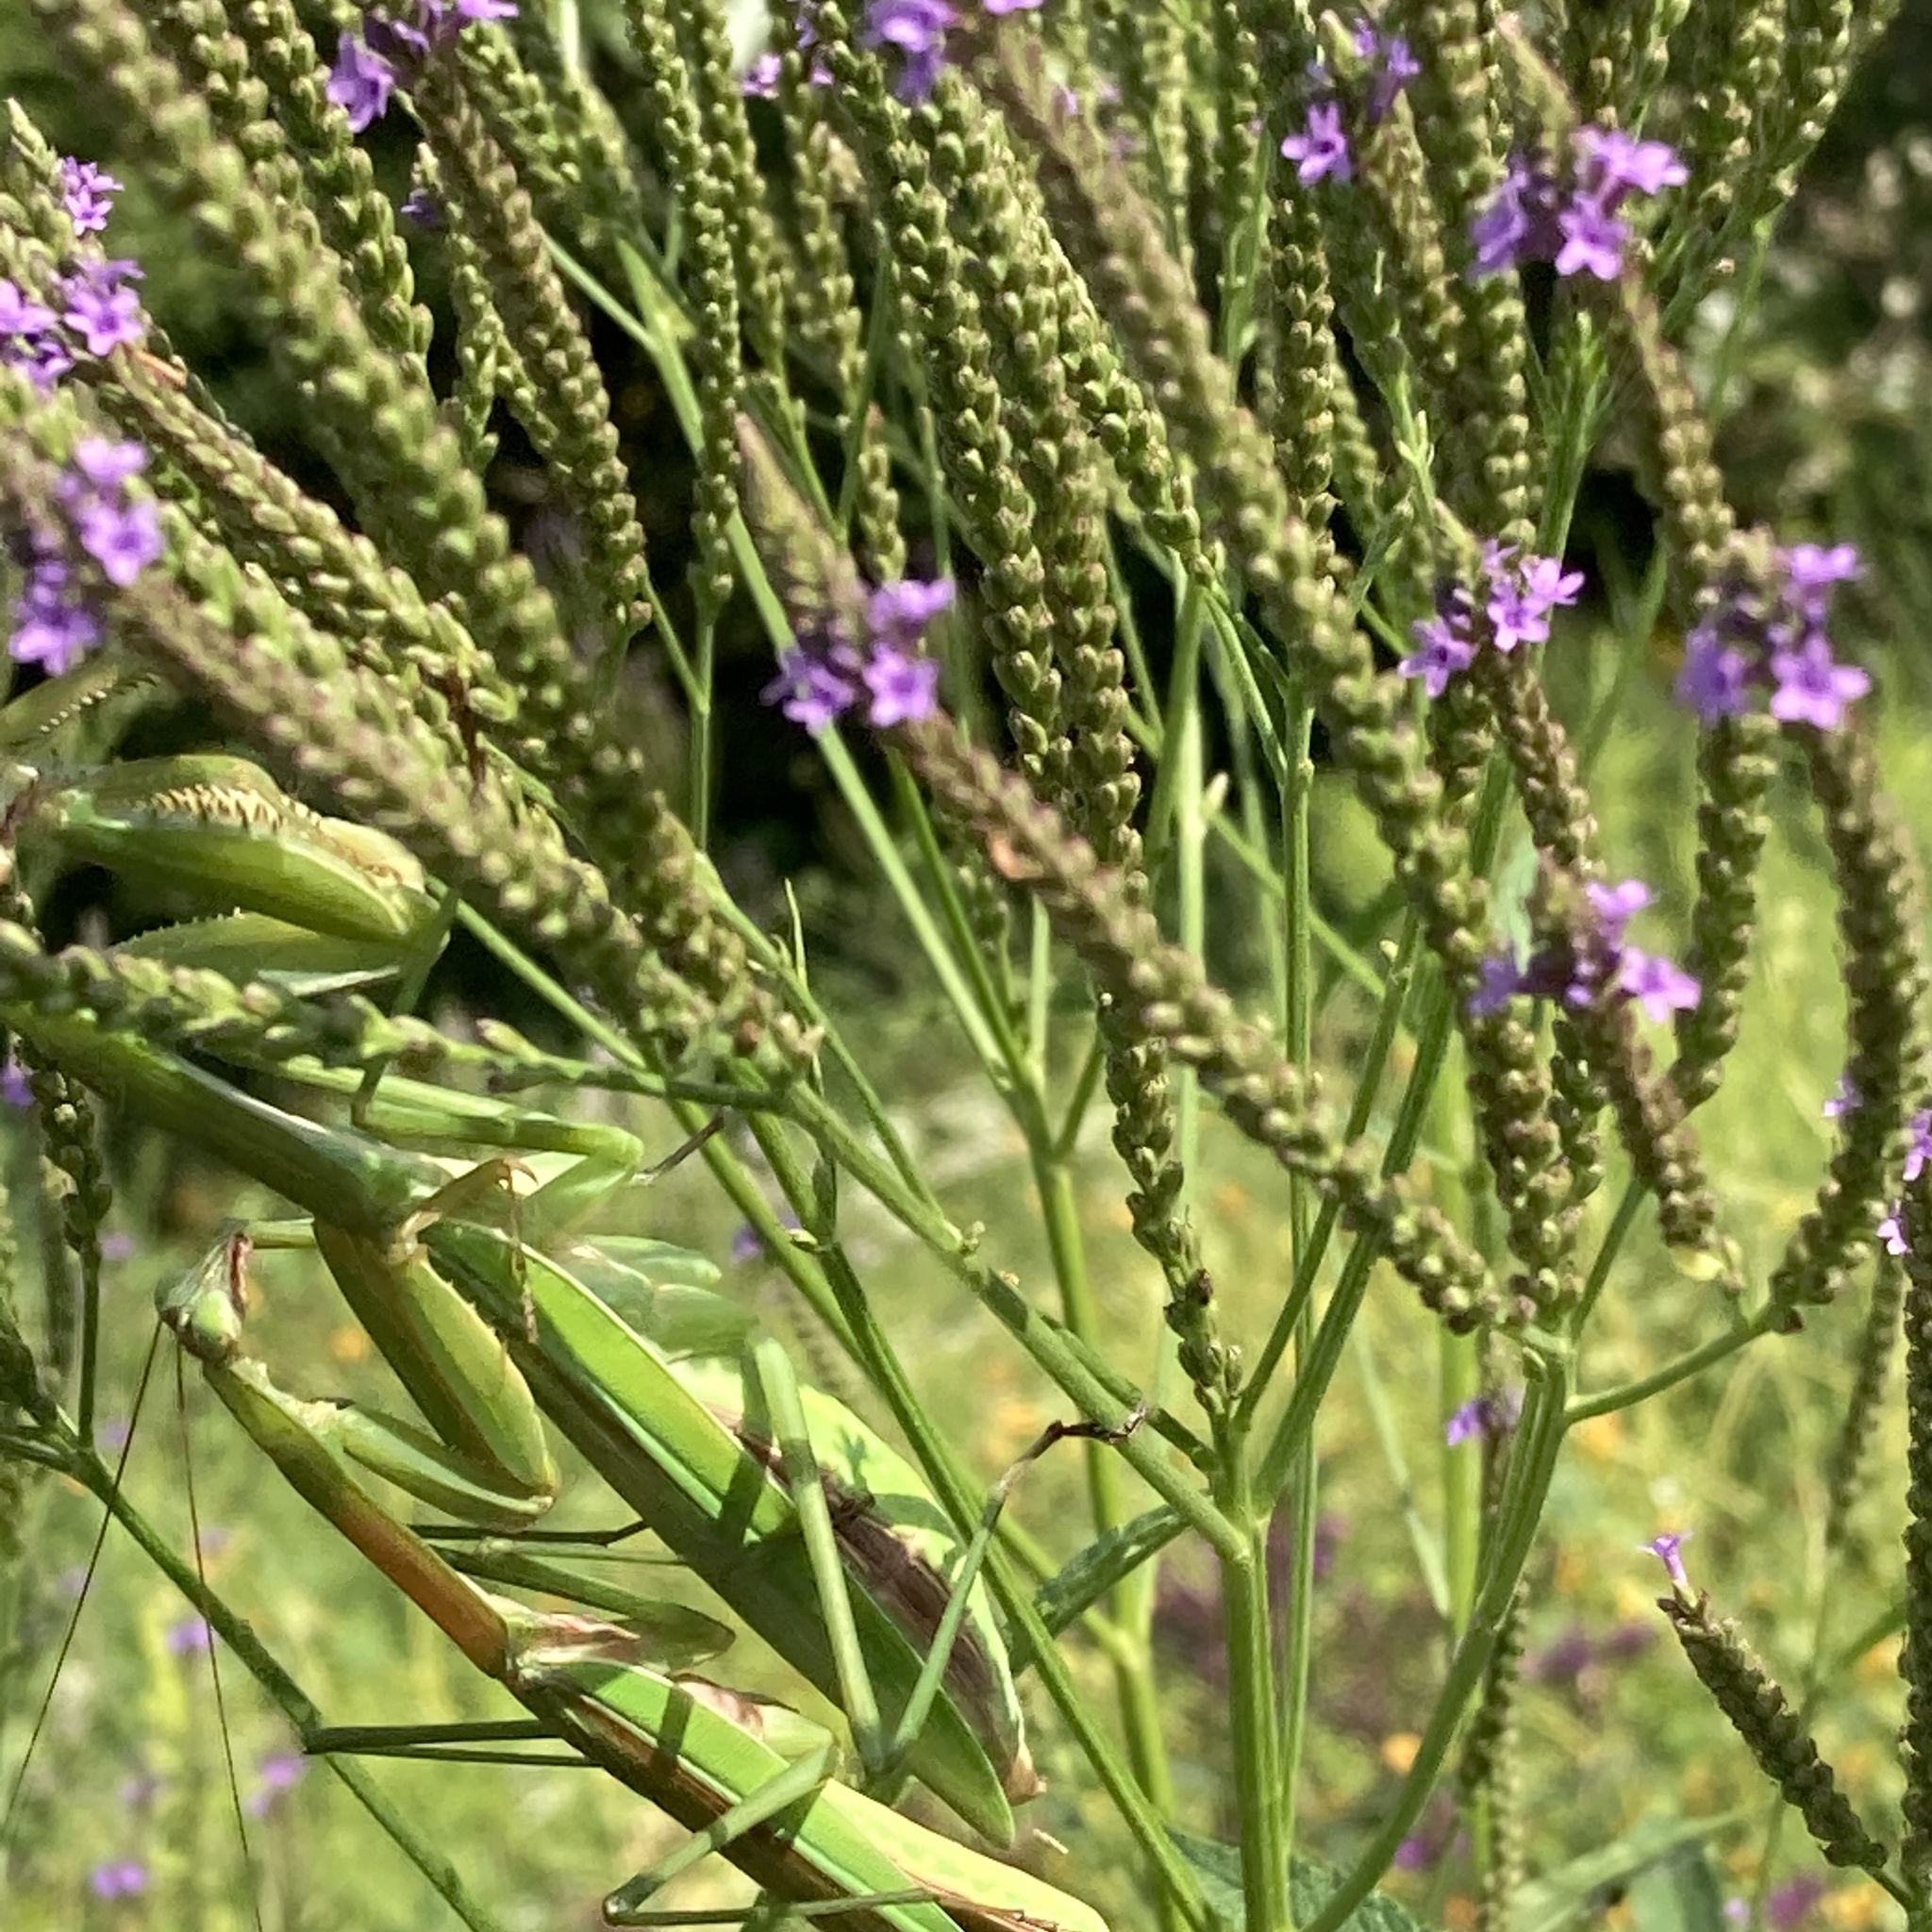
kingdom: Animalia
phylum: Arthropoda
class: Insecta
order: Mantodea
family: Mantidae
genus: Tenodera
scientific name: Tenodera sinensis
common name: Chinese mantis
